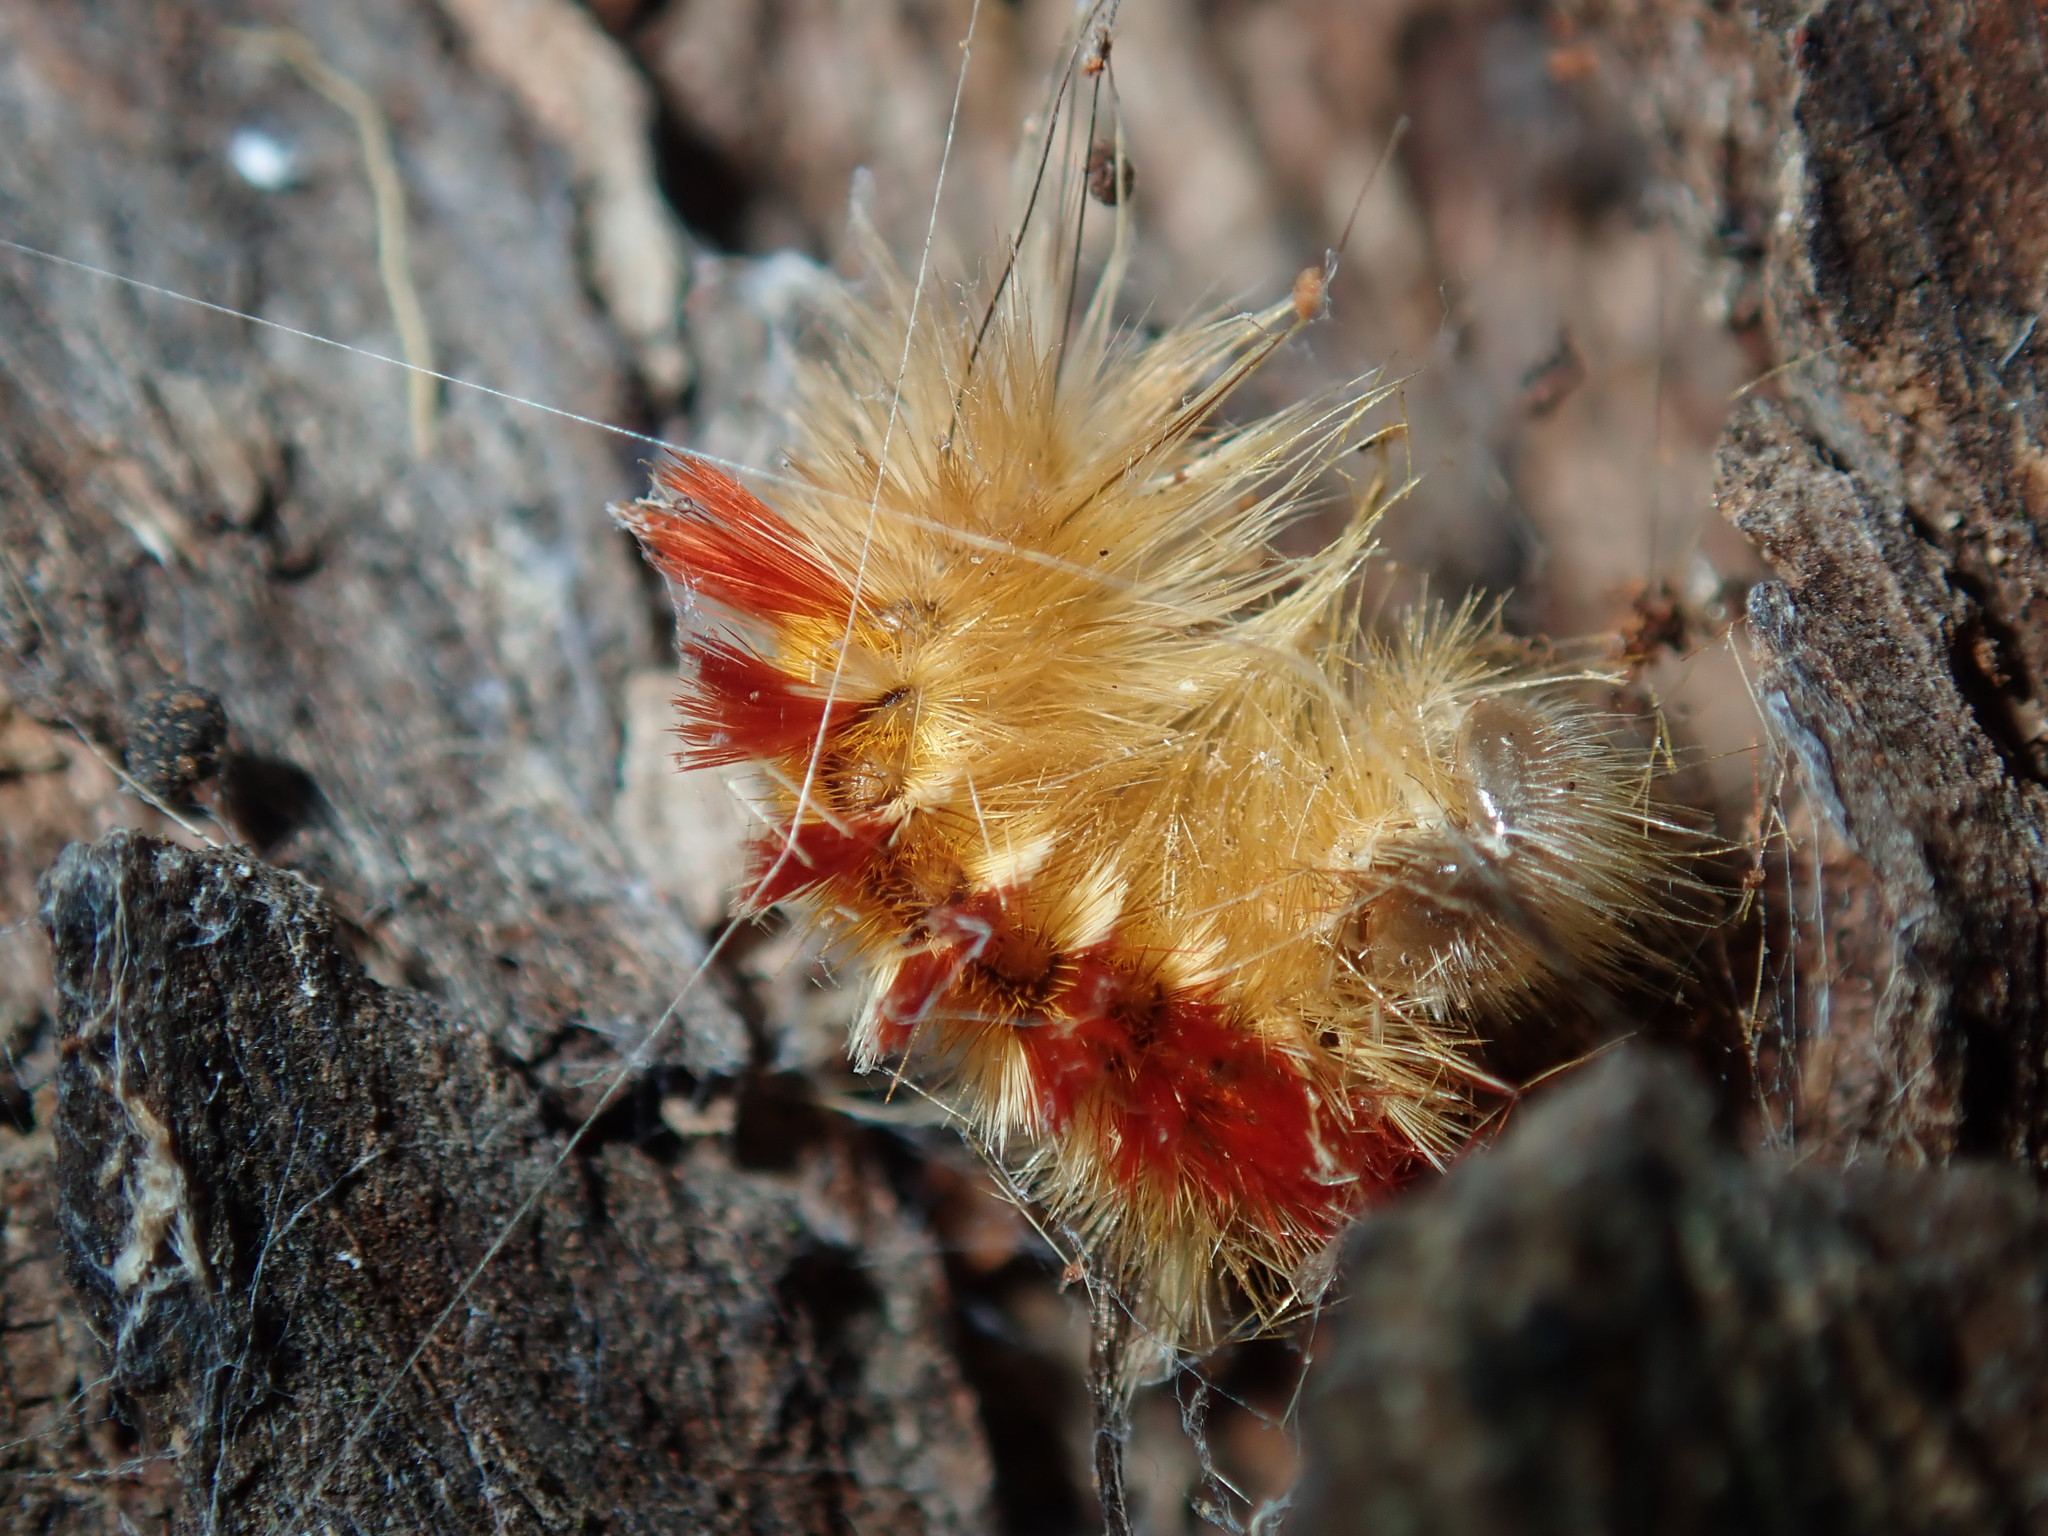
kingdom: Animalia
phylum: Arthropoda
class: Insecta
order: Lepidoptera
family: Notodontidae
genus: Trichiocercus
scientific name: Trichiocercus sparshalli
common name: Long-tailed satin
